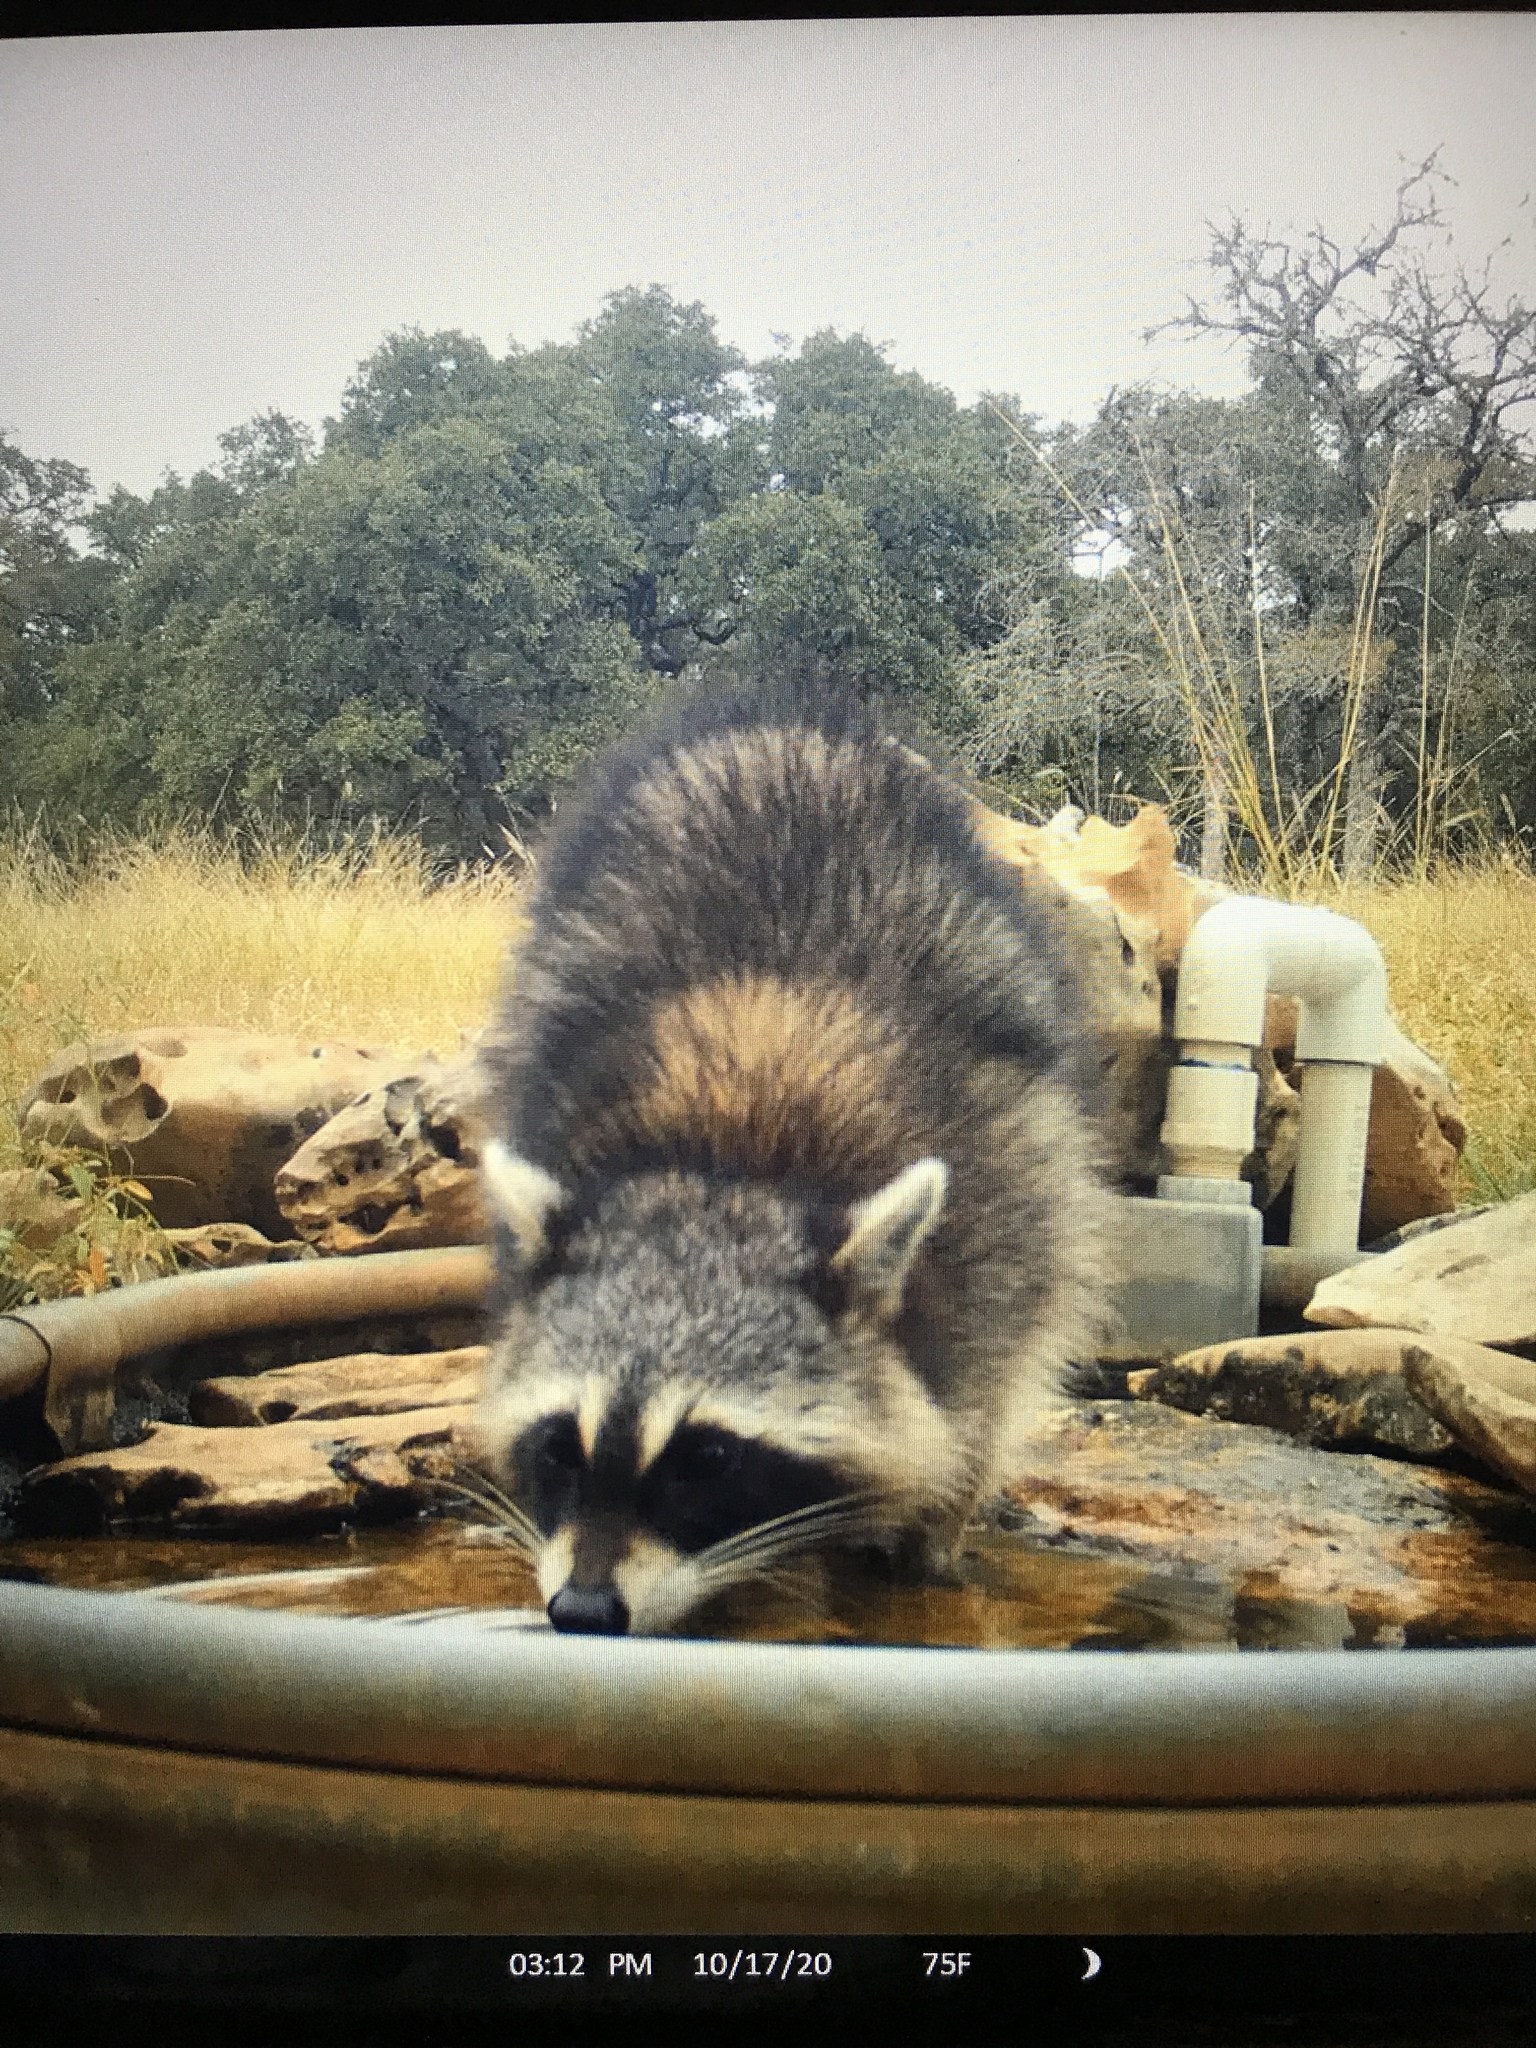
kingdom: Animalia
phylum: Chordata
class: Mammalia
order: Carnivora
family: Procyonidae
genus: Procyon
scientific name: Procyon lotor
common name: Raccoon
